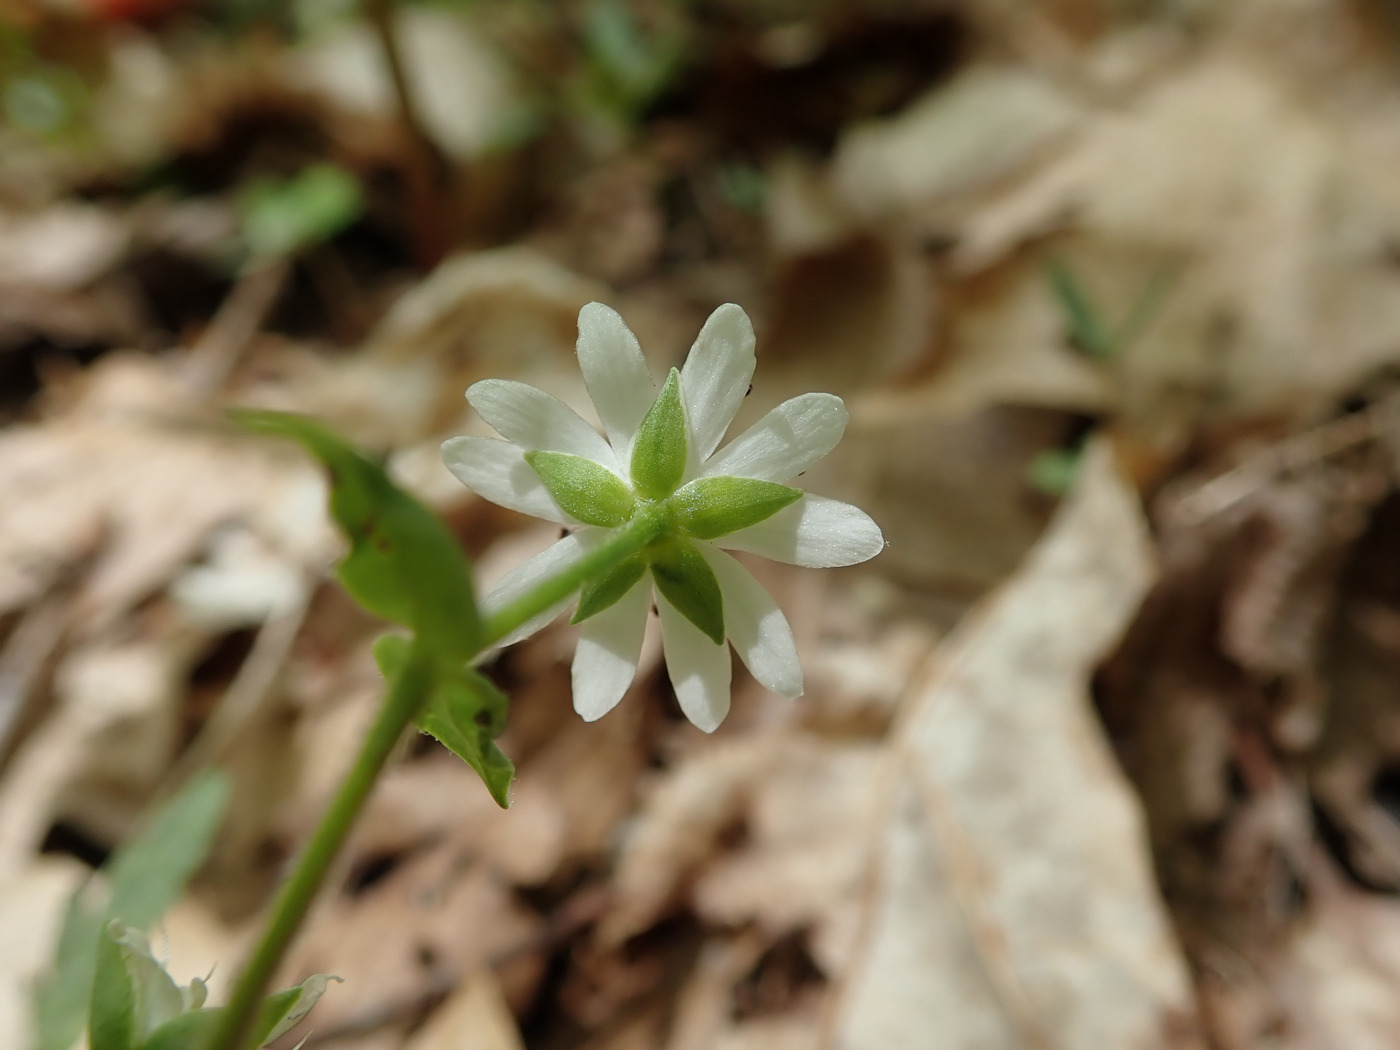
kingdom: Plantae
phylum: Tracheophyta
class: Magnoliopsida
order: Caryophyllales
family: Caryophyllaceae
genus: Stellaria
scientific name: Stellaria pubera
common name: Star chickweed
